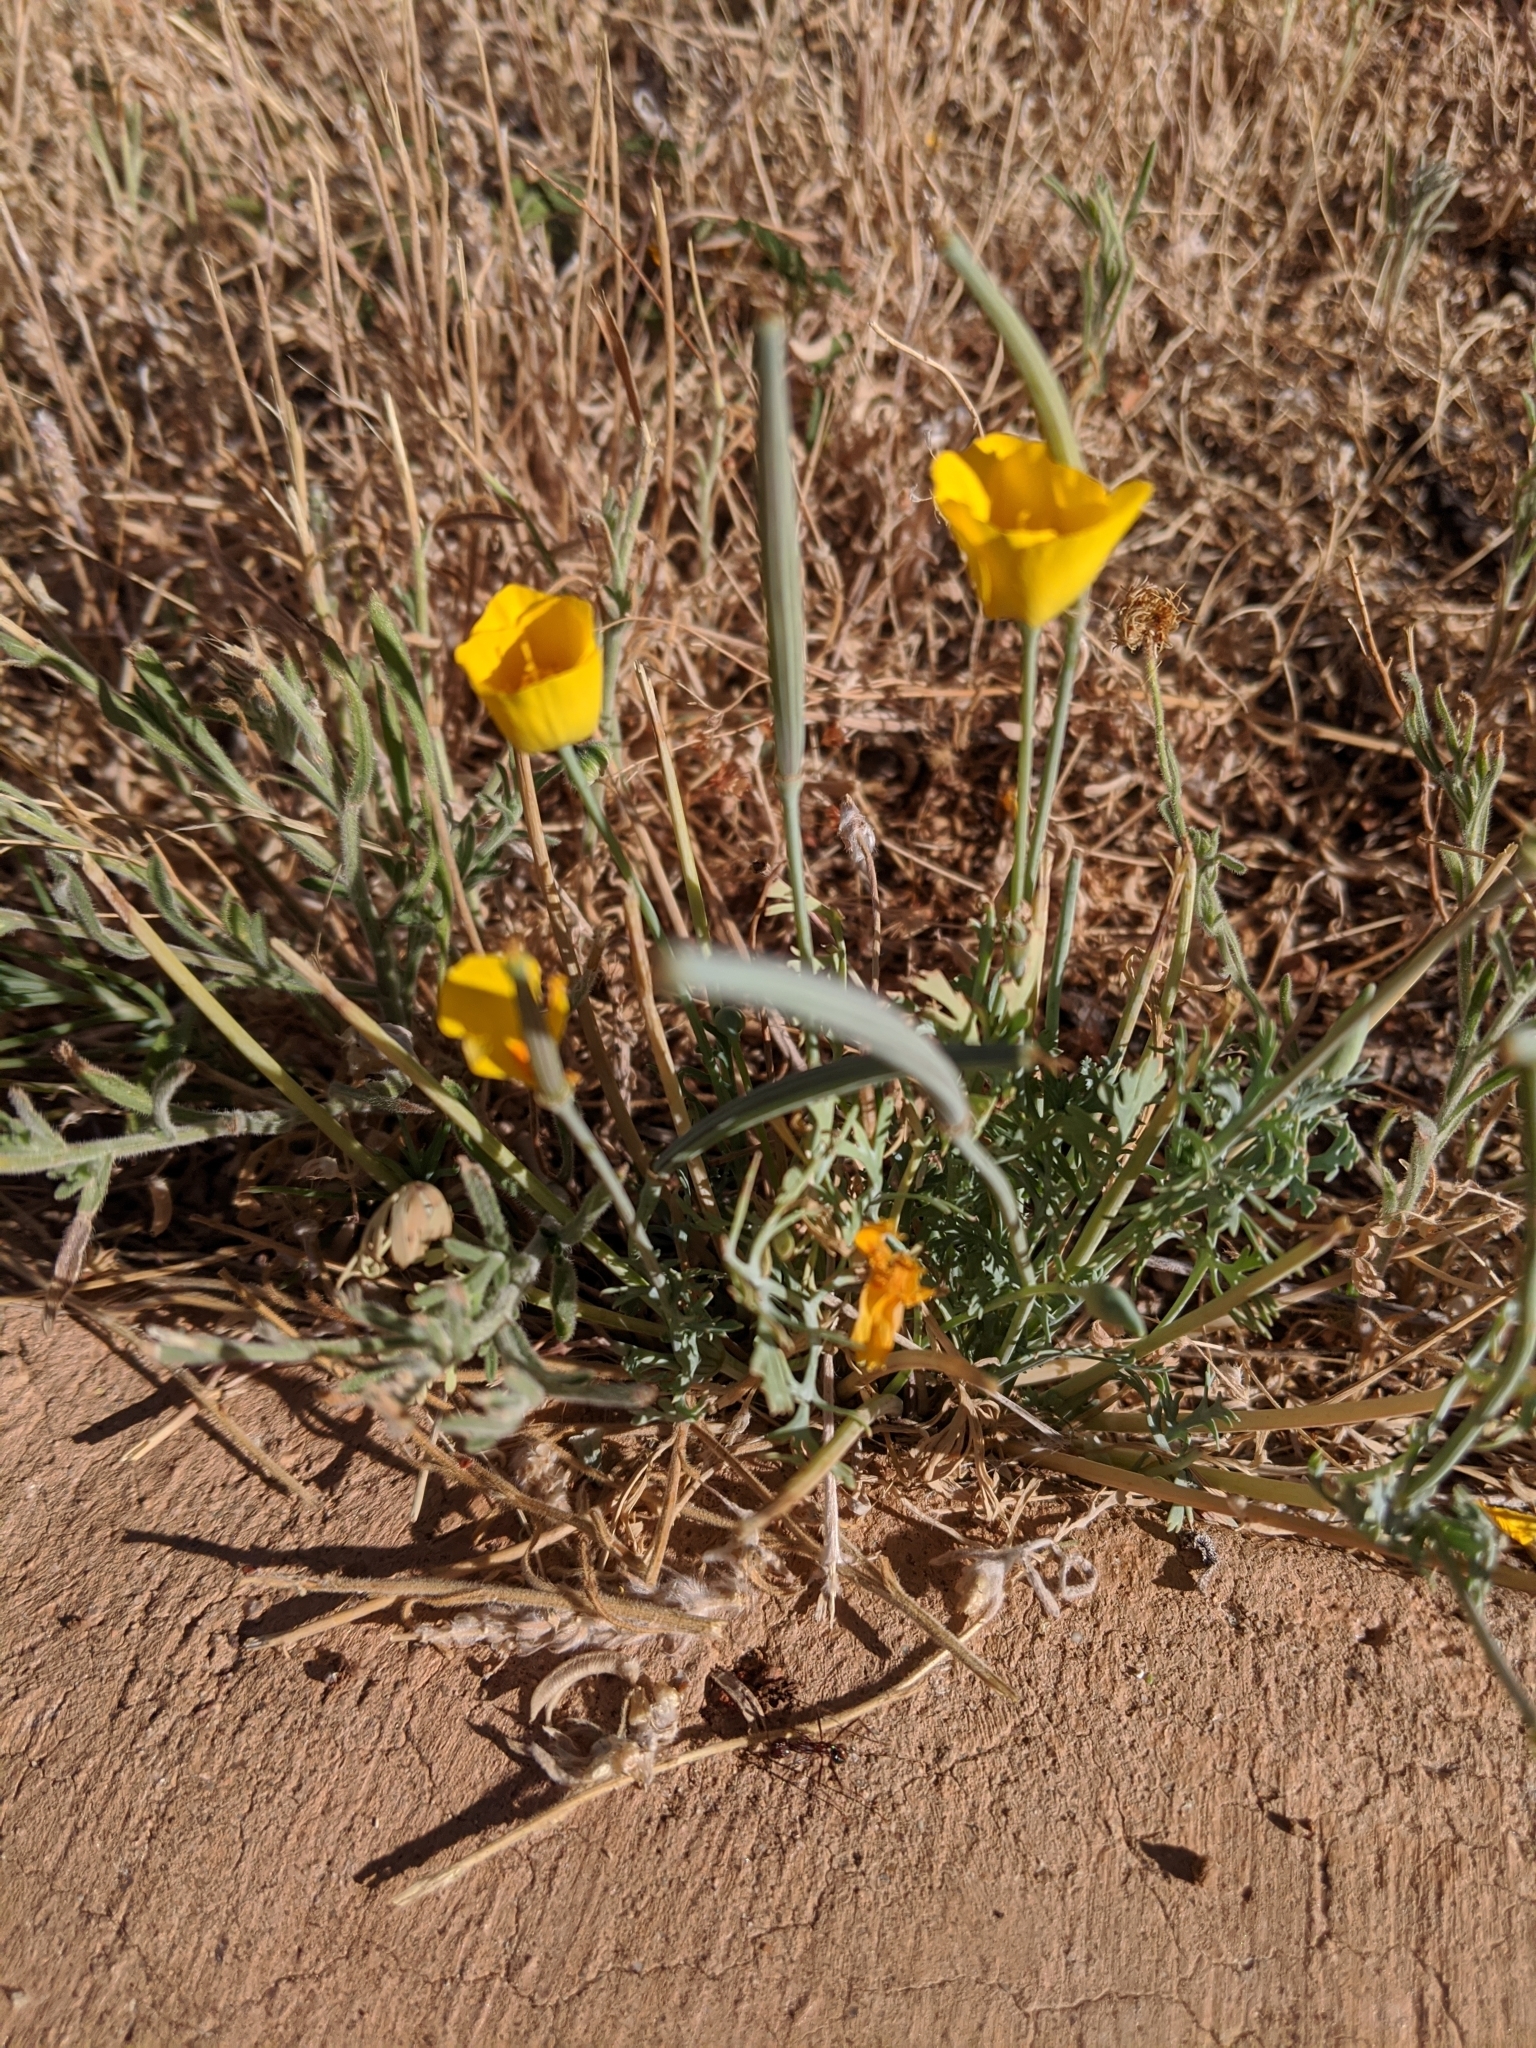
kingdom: Plantae
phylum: Tracheophyta
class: Magnoliopsida
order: Ranunculales
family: Papaveraceae
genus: Eschscholzia
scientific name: Eschscholzia californica
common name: California poppy
